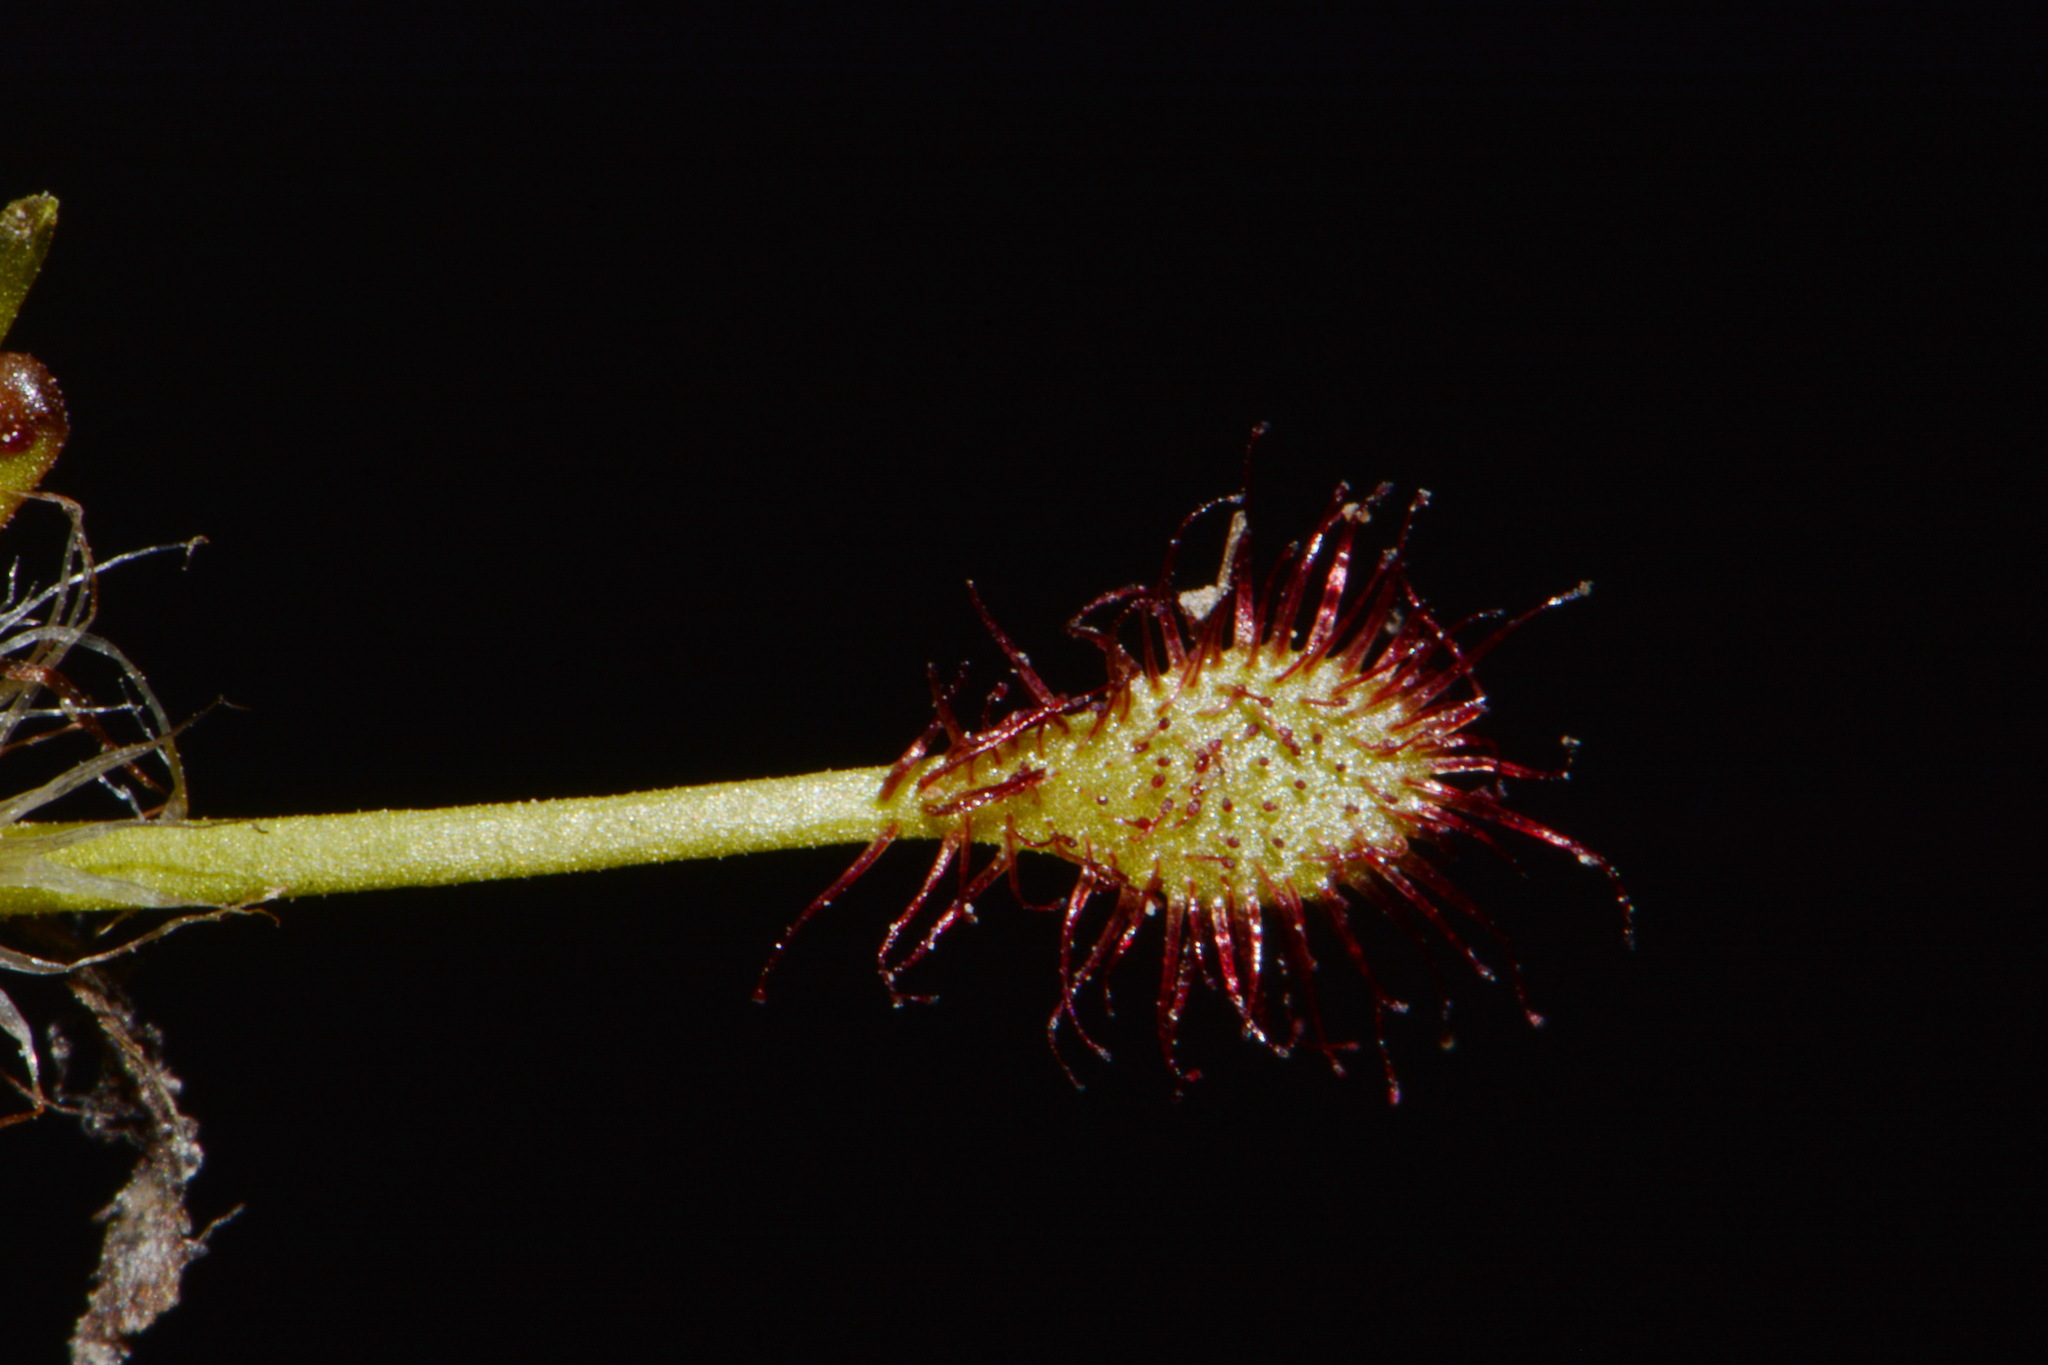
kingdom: Plantae
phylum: Tracheophyta
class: Magnoliopsida
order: Caryophyllales
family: Droseraceae
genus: Drosera
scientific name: Drosera intermedia
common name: Oblong-leaved sundew
